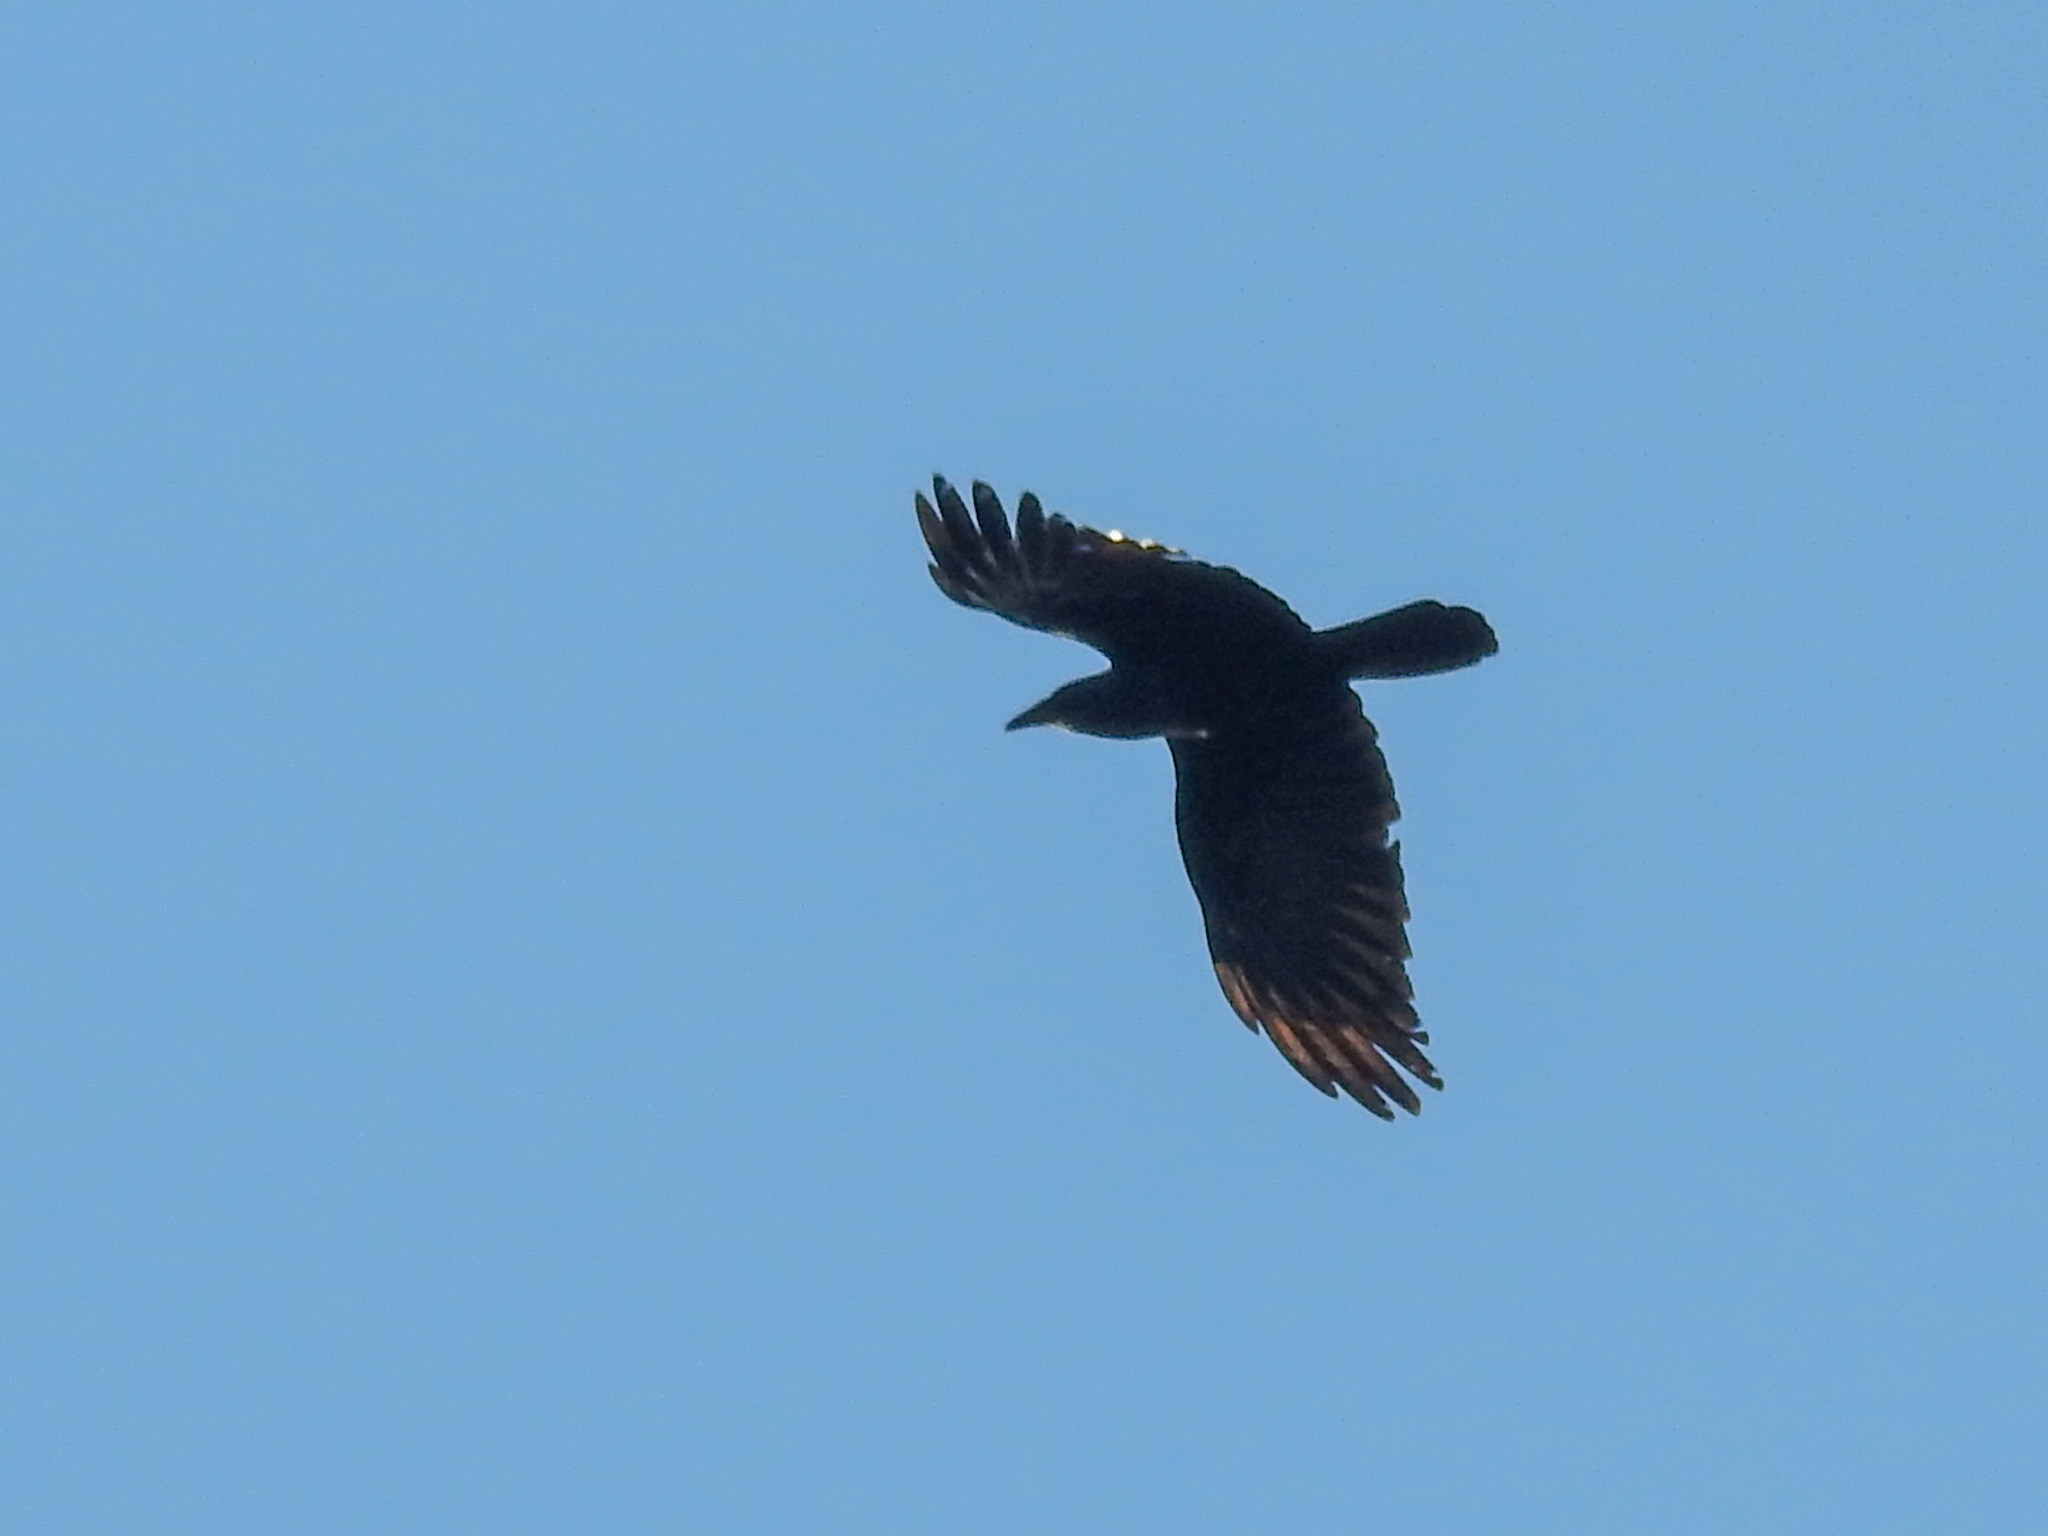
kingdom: Animalia
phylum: Chordata
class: Aves
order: Passeriformes
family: Corvidae
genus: Corvus
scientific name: Corvus ossifragus
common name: Fish crow
